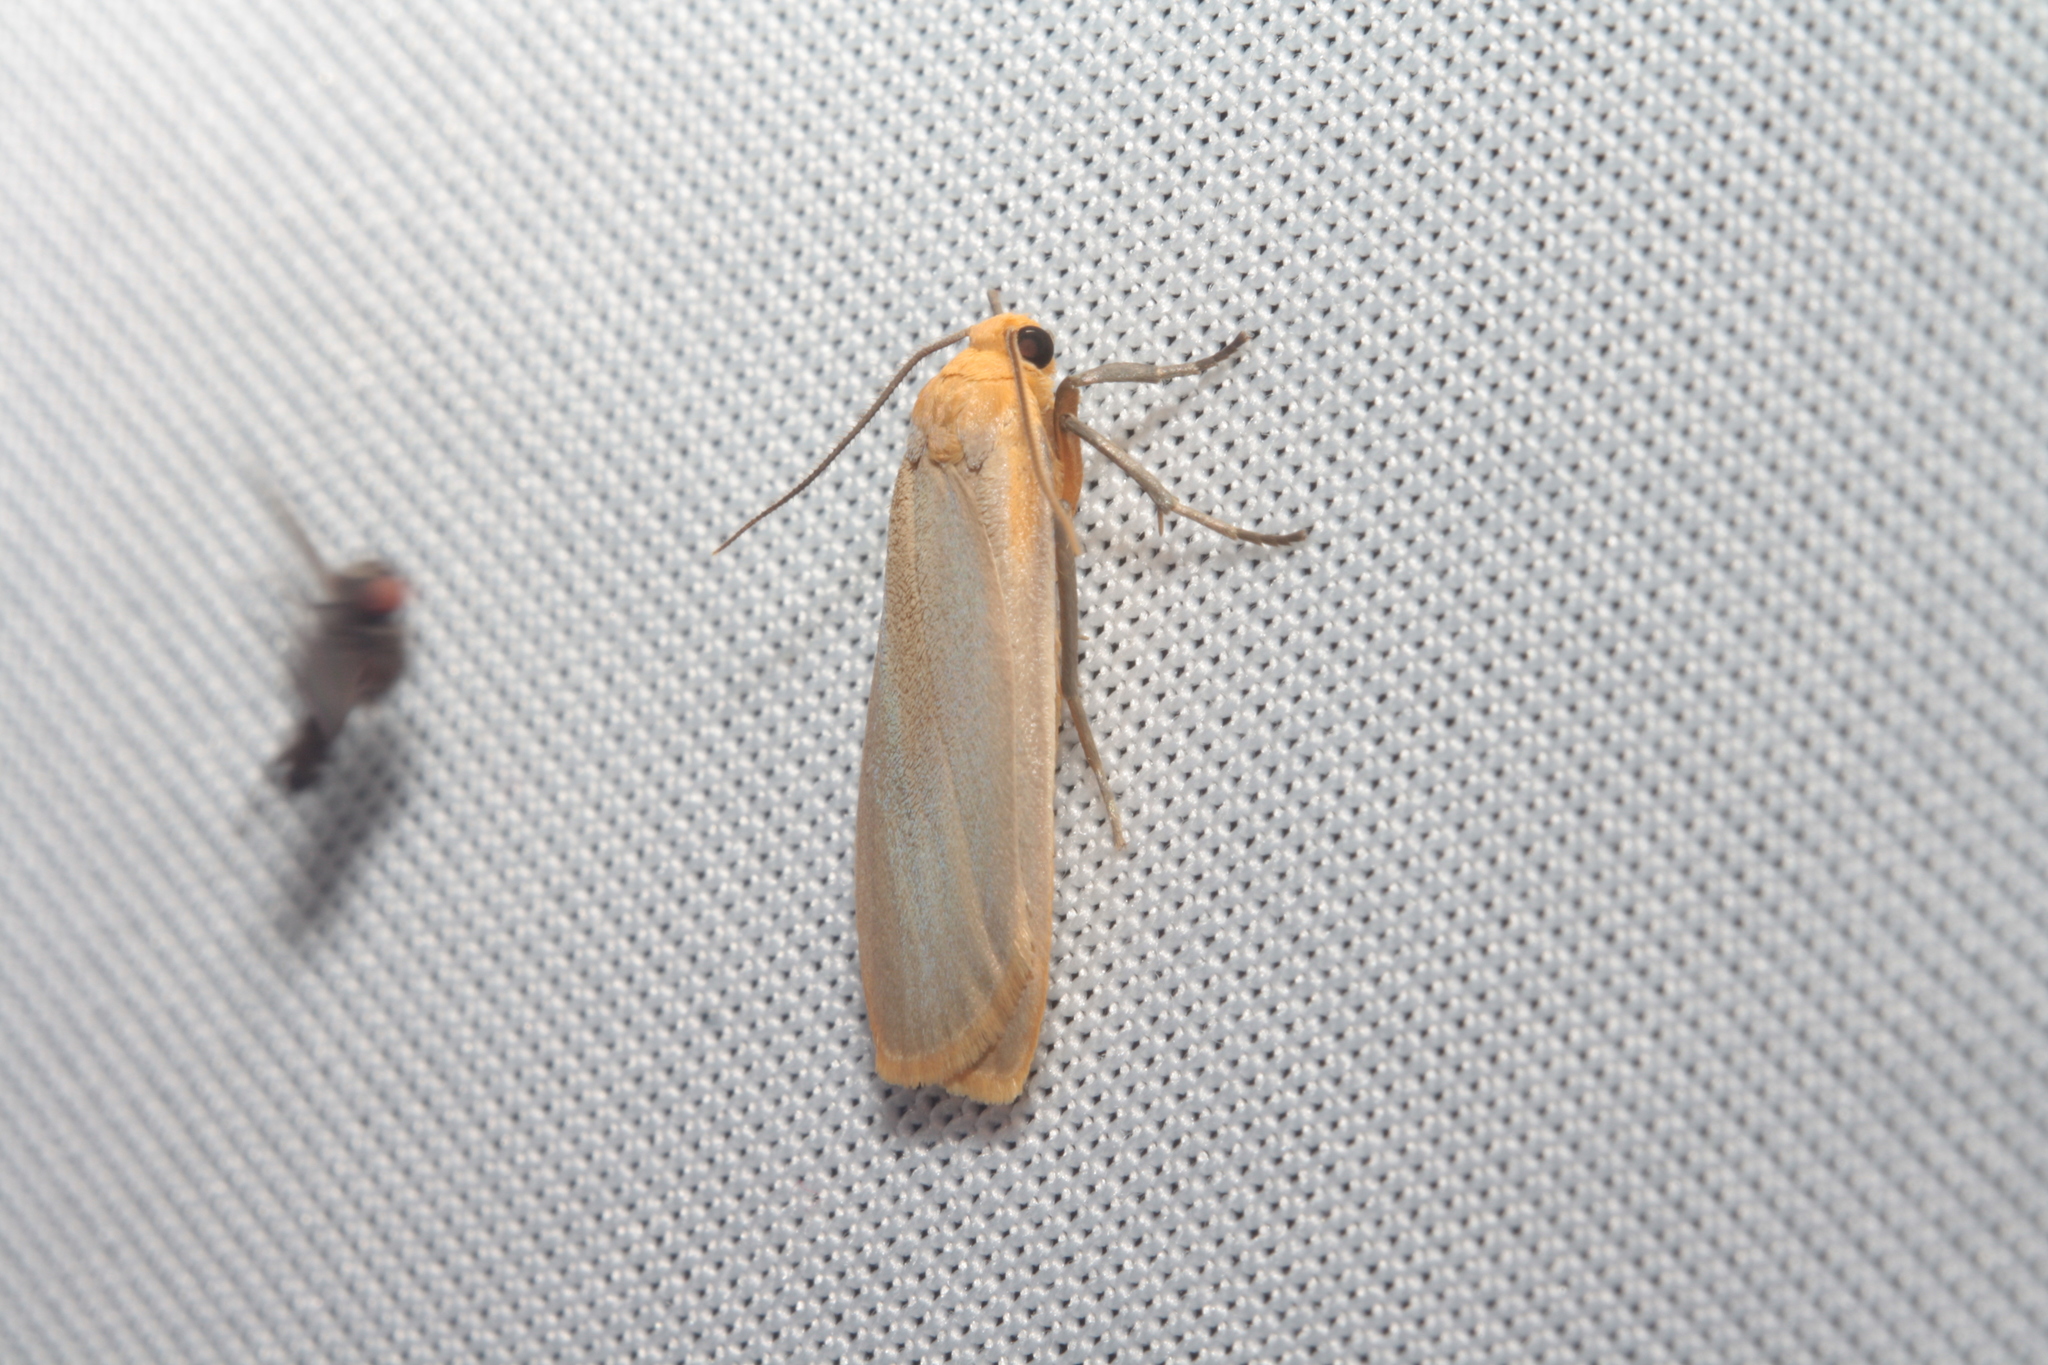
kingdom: Animalia
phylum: Arthropoda
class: Insecta
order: Lepidoptera
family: Erebidae
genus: Katha
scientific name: Katha depressa
